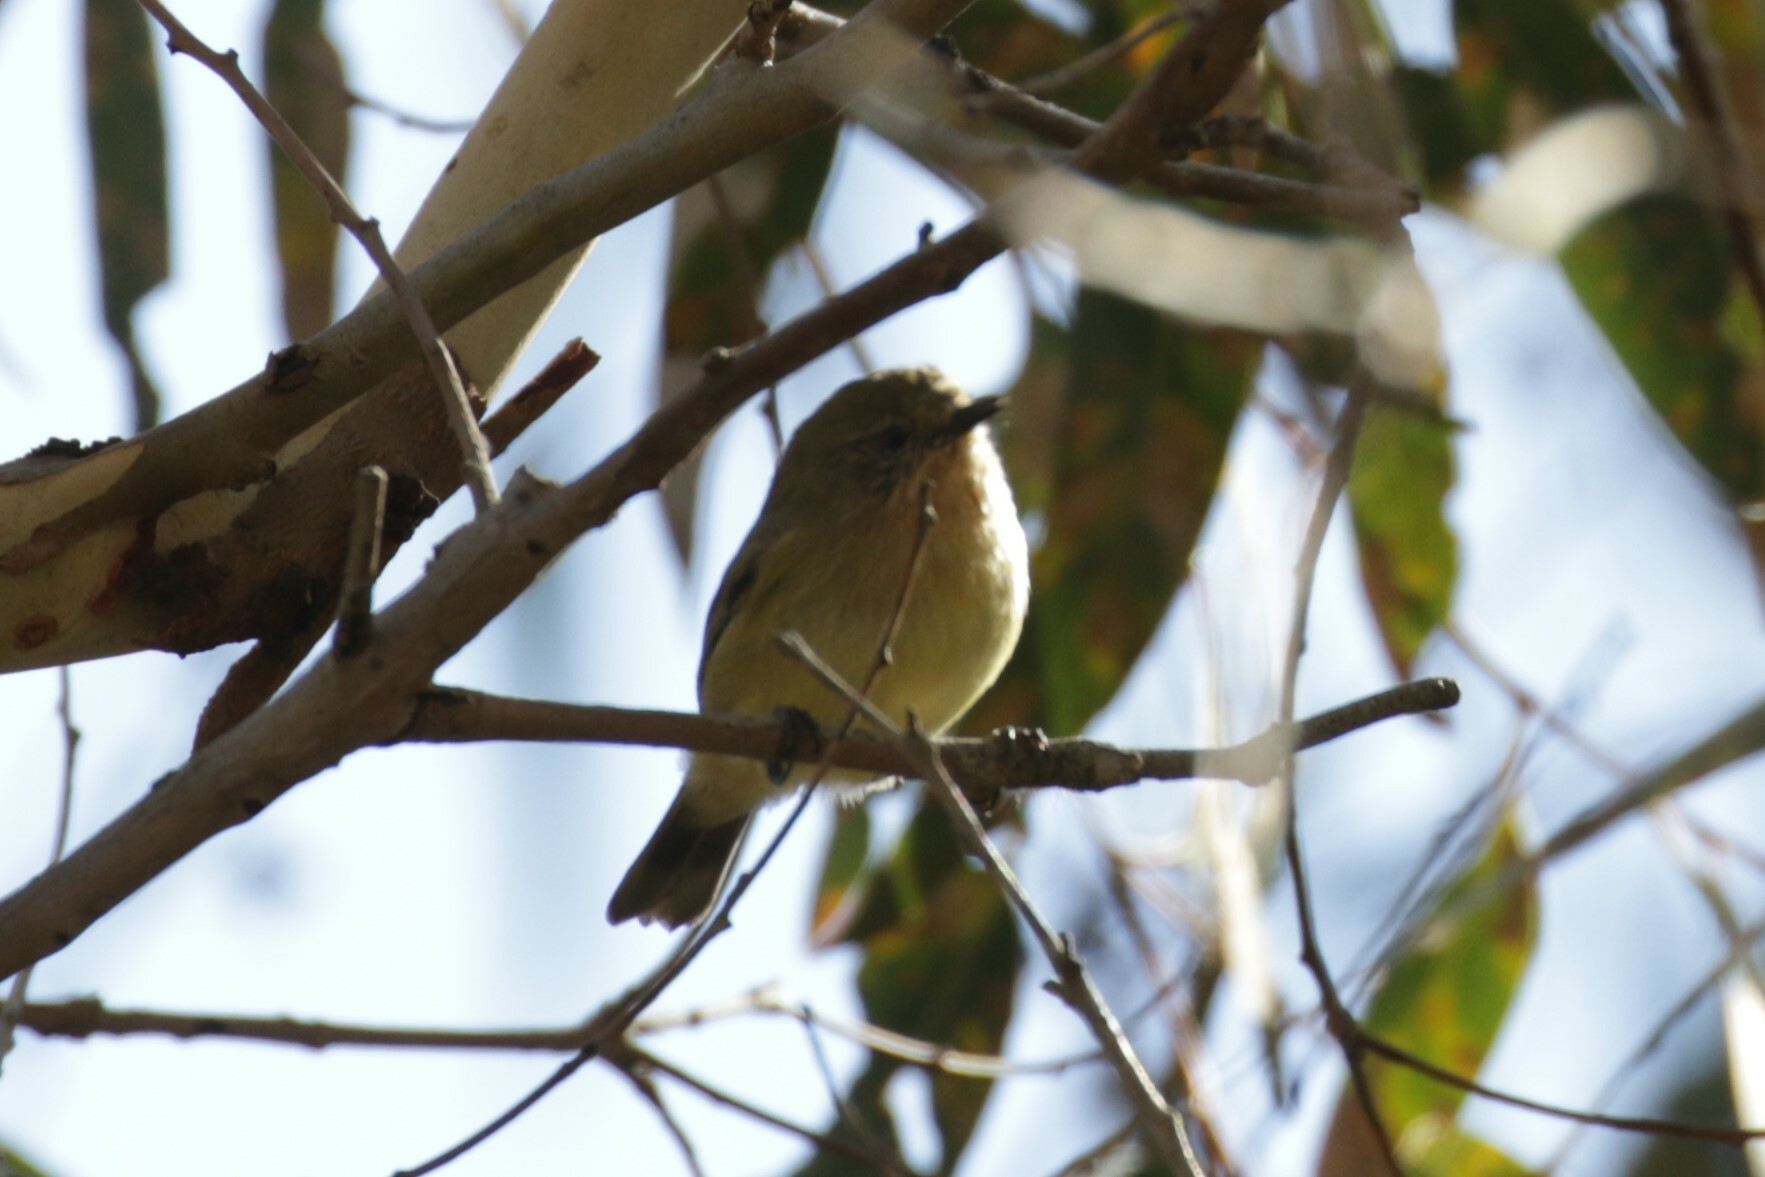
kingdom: Animalia
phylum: Chordata
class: Aves
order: Passeriformes
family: Acanthizidae
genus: Acanthiza
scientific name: Acanthiza nana
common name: Yellow thornbill
